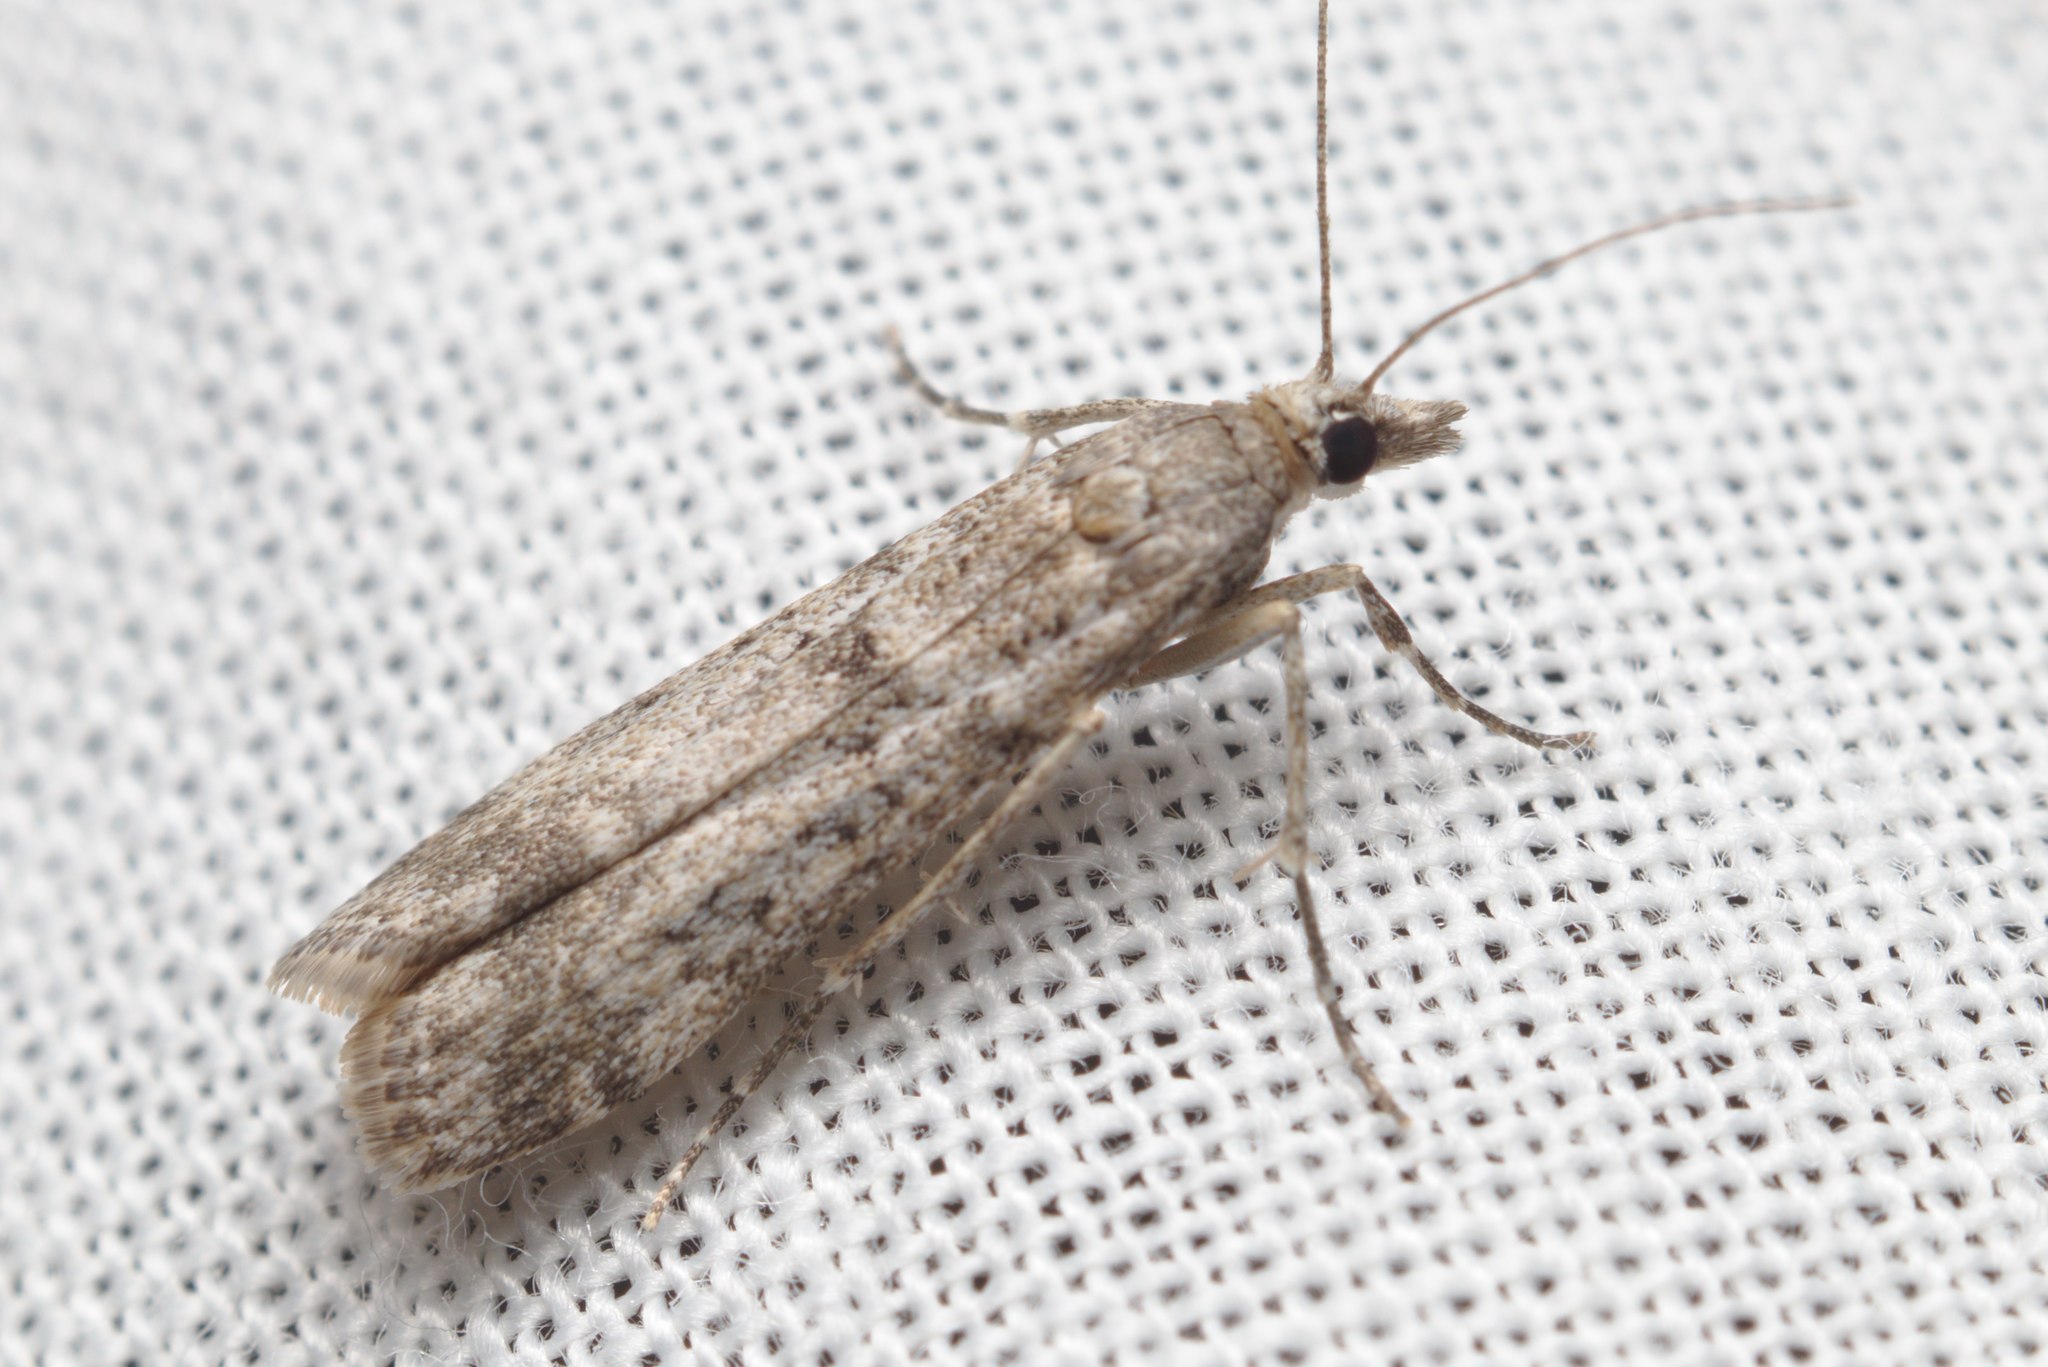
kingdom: Animalia
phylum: Arthropoda
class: Insecta
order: Lepidoptera
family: Crambidae
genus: Eudonia
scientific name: Eudonia leptalea
